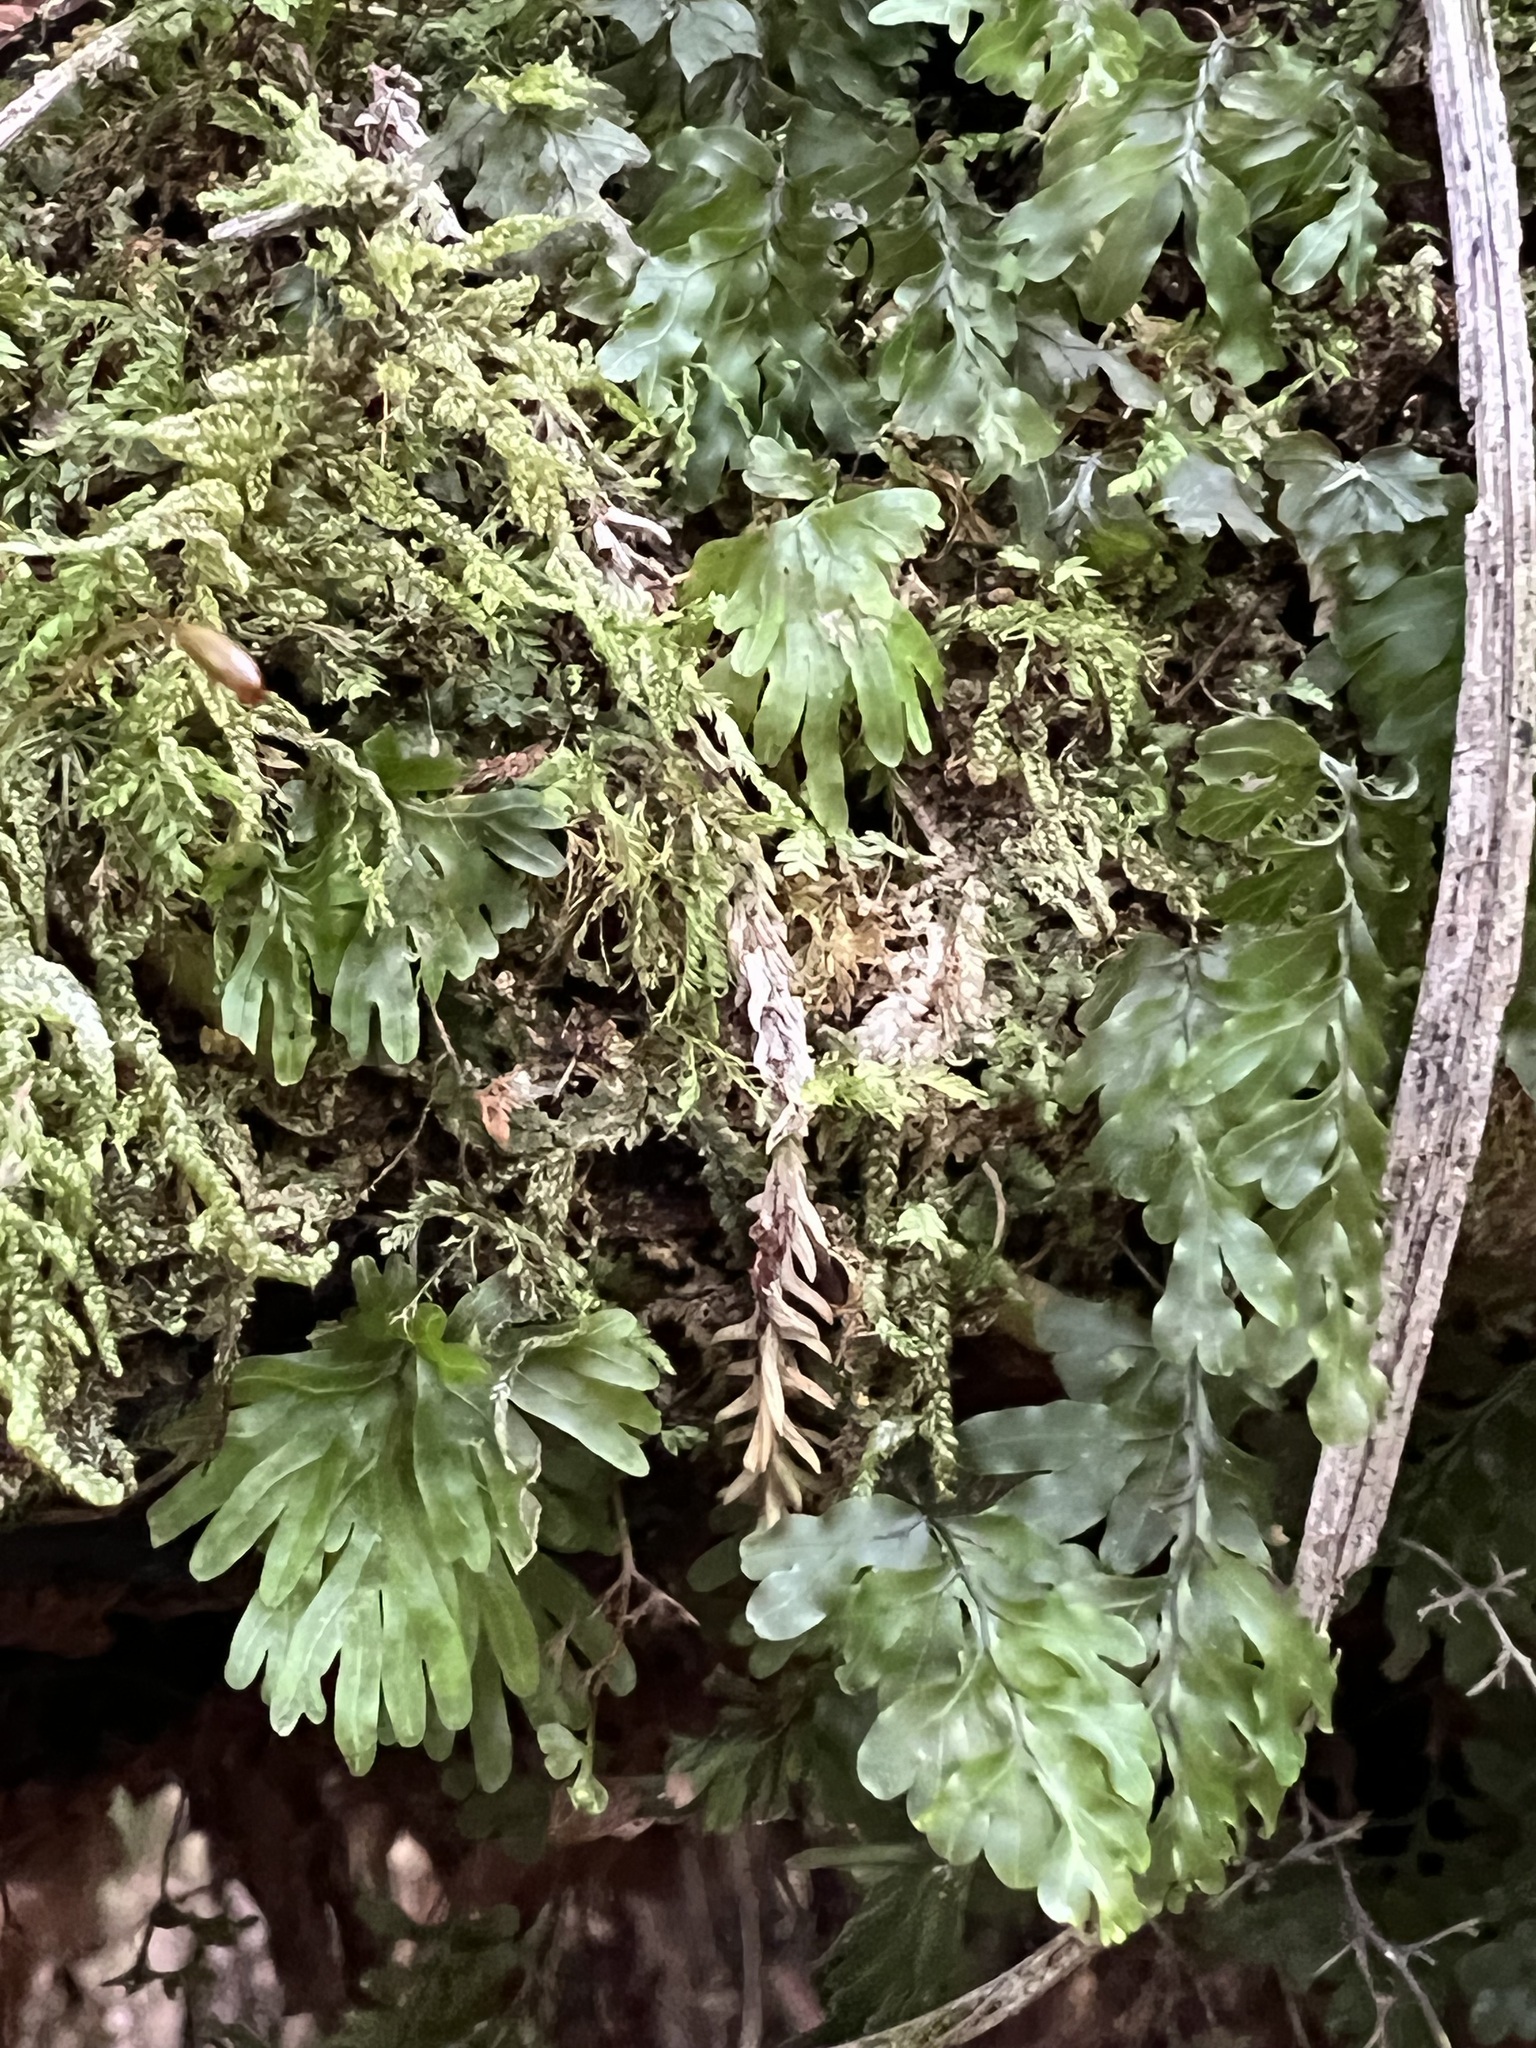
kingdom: Plantae
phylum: Tracheophyta
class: Polypodiopsida
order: Hymenophyllales
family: Hymenophyllaceae
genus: Hymenophyllum
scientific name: Hymenophyllum rarum
